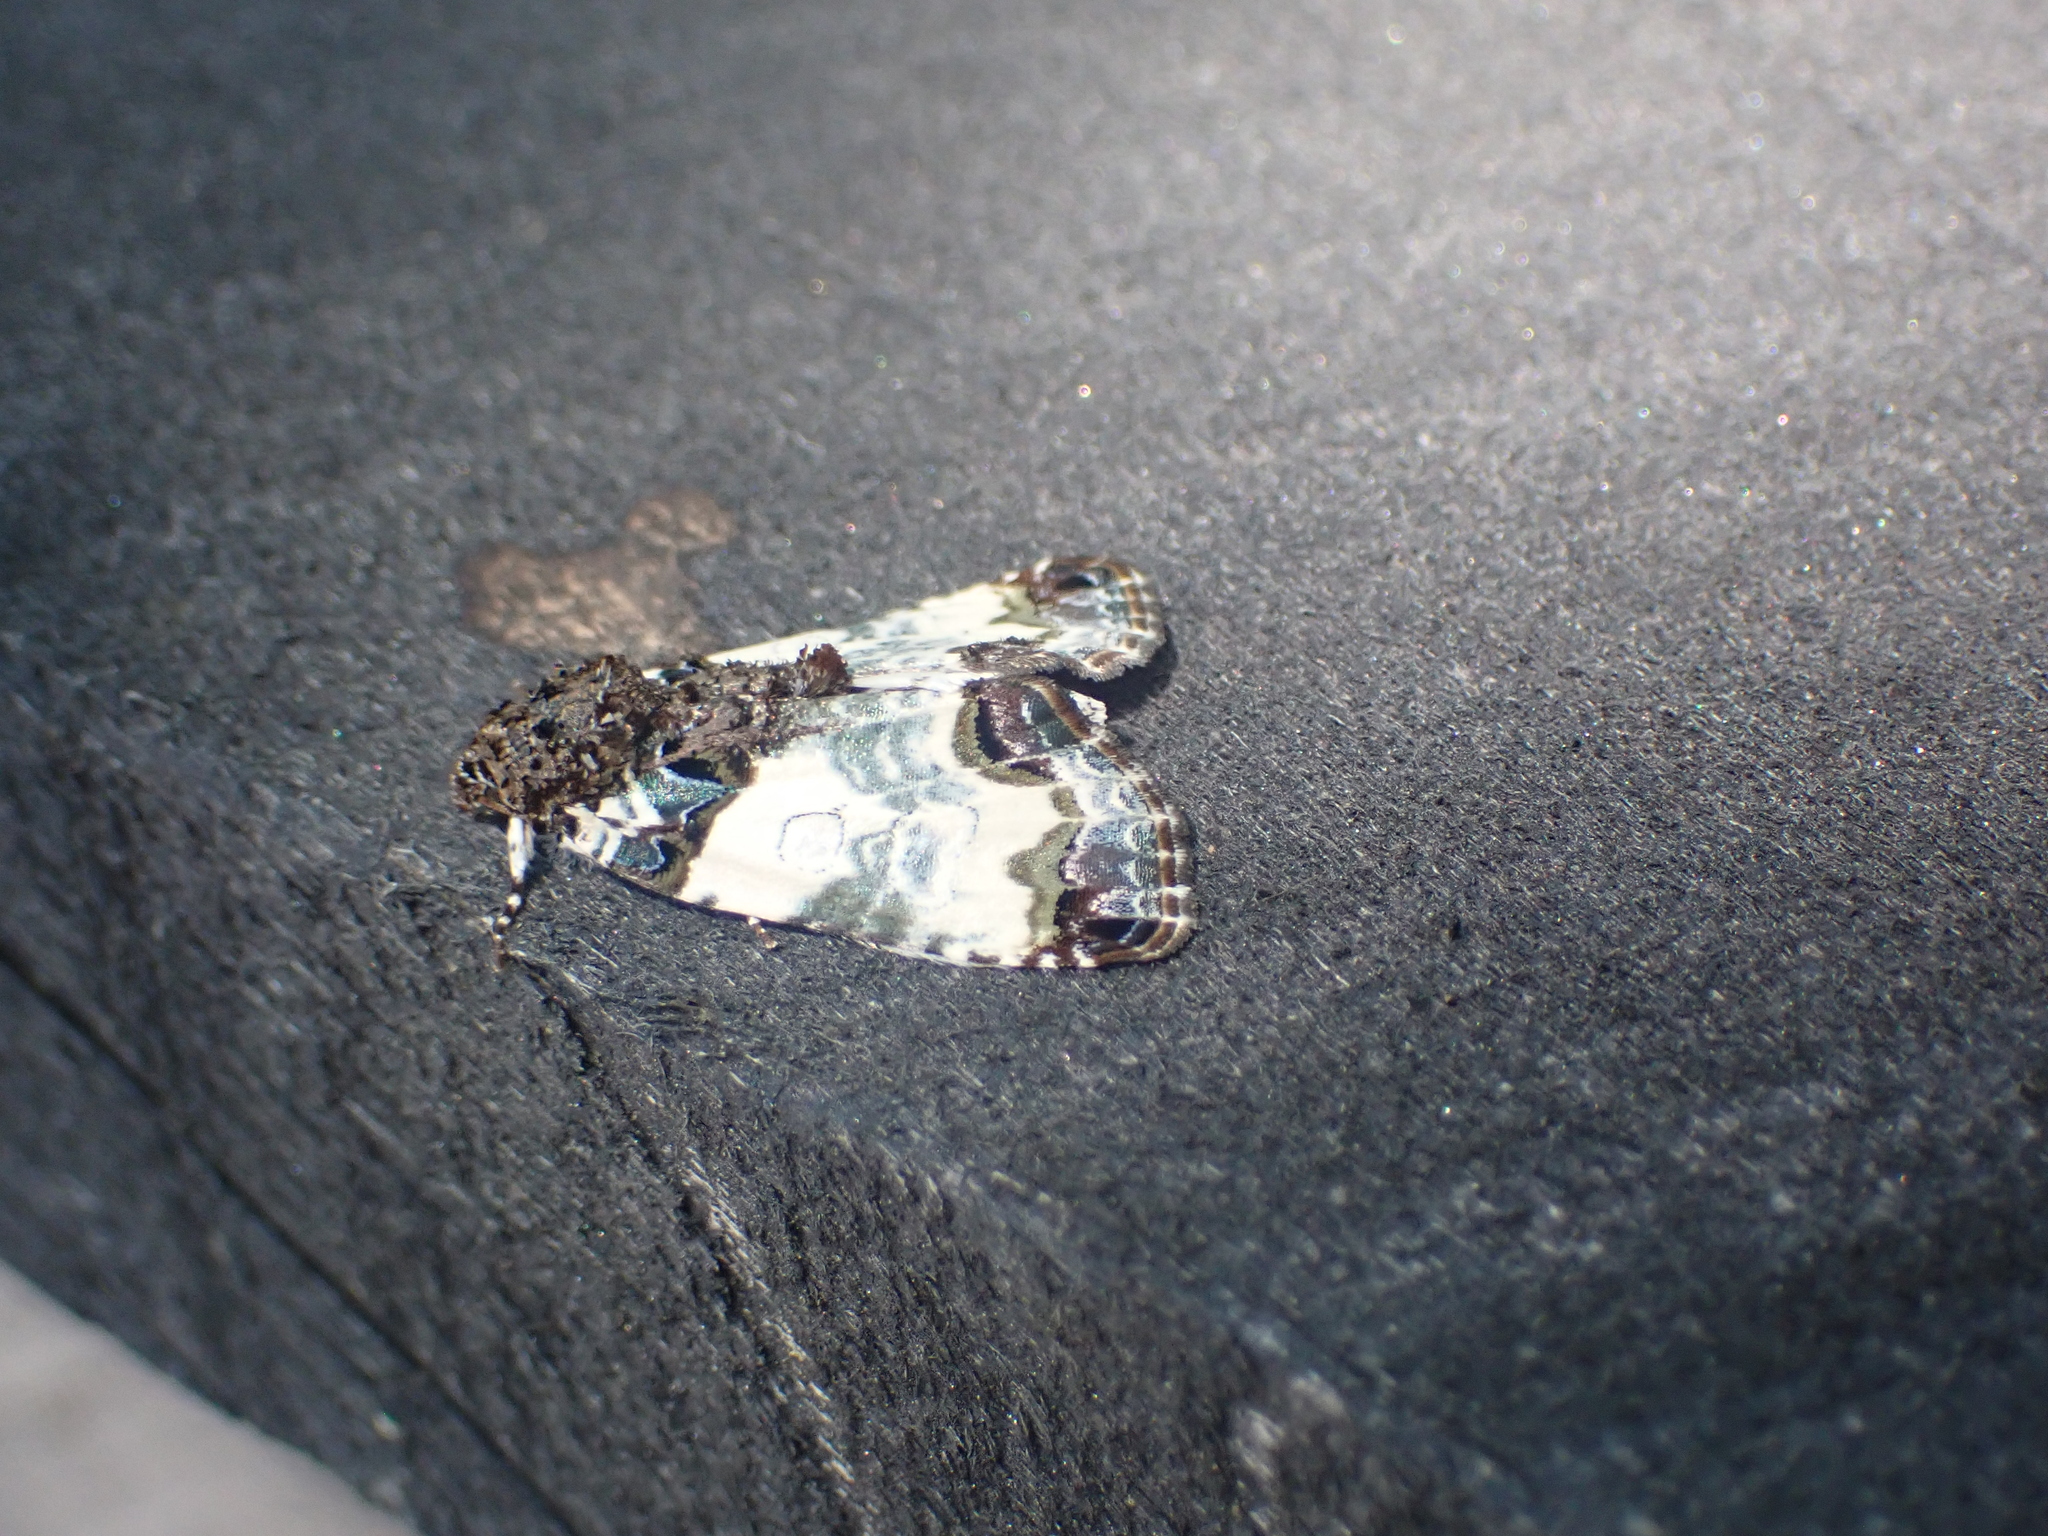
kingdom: Animalia
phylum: Arthropoda
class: Insecta
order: Lepidoptera
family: Noctuidae
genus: Cerma
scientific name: Cerma cerintha
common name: Tufted bird-dropping moth
